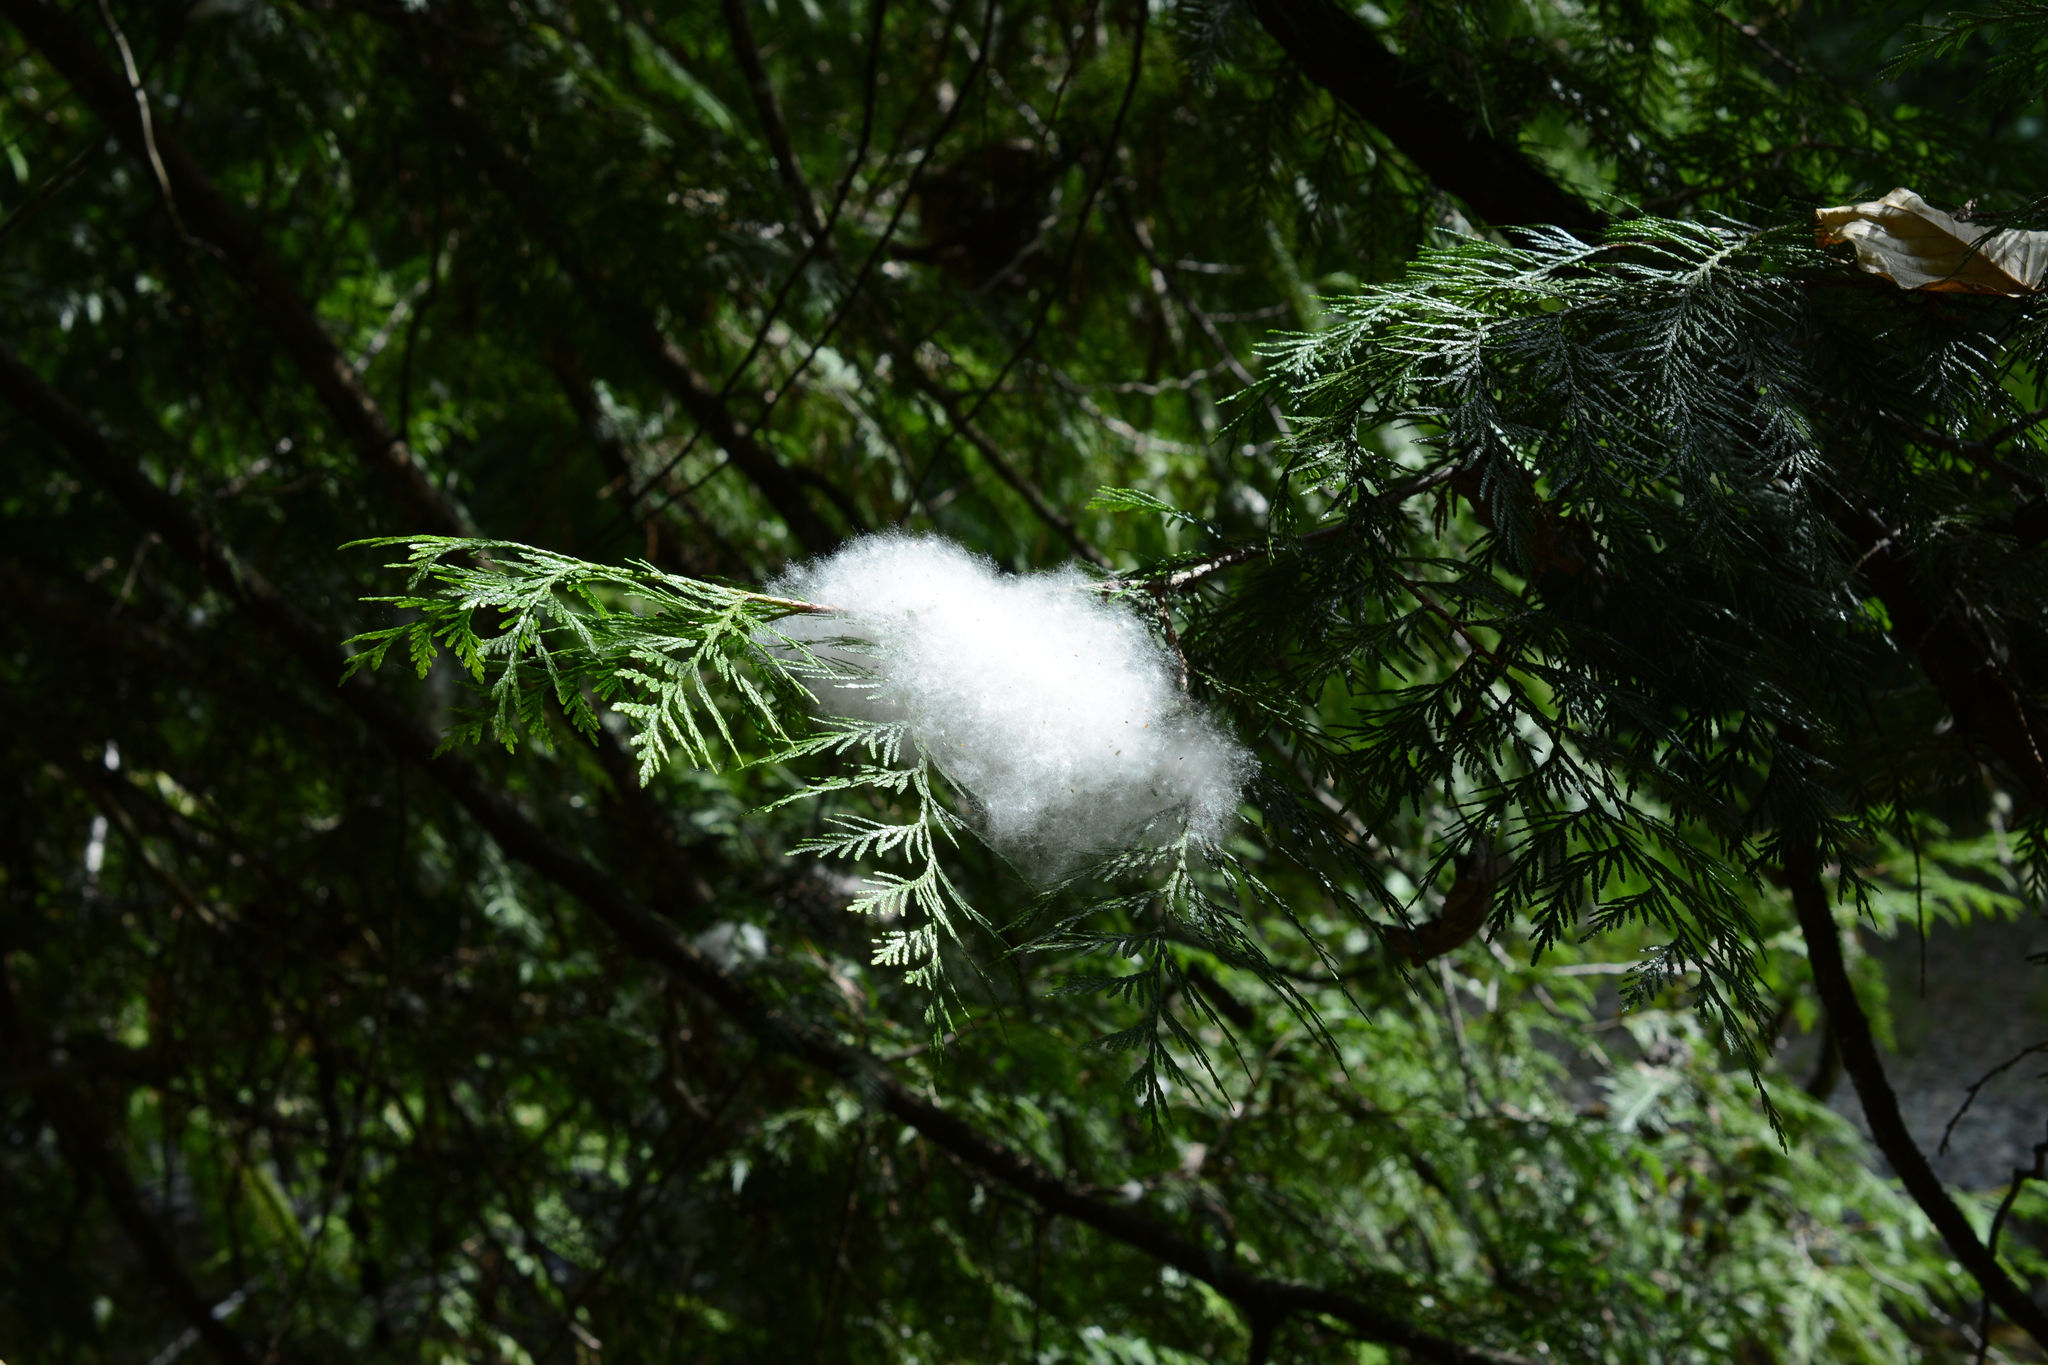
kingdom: Plantae
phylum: Tracheophyta
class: Magnoliopsida
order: Malpighiales
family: Salicaceae
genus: Populus
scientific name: Populus trichocarpa
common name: Black cottonwood
